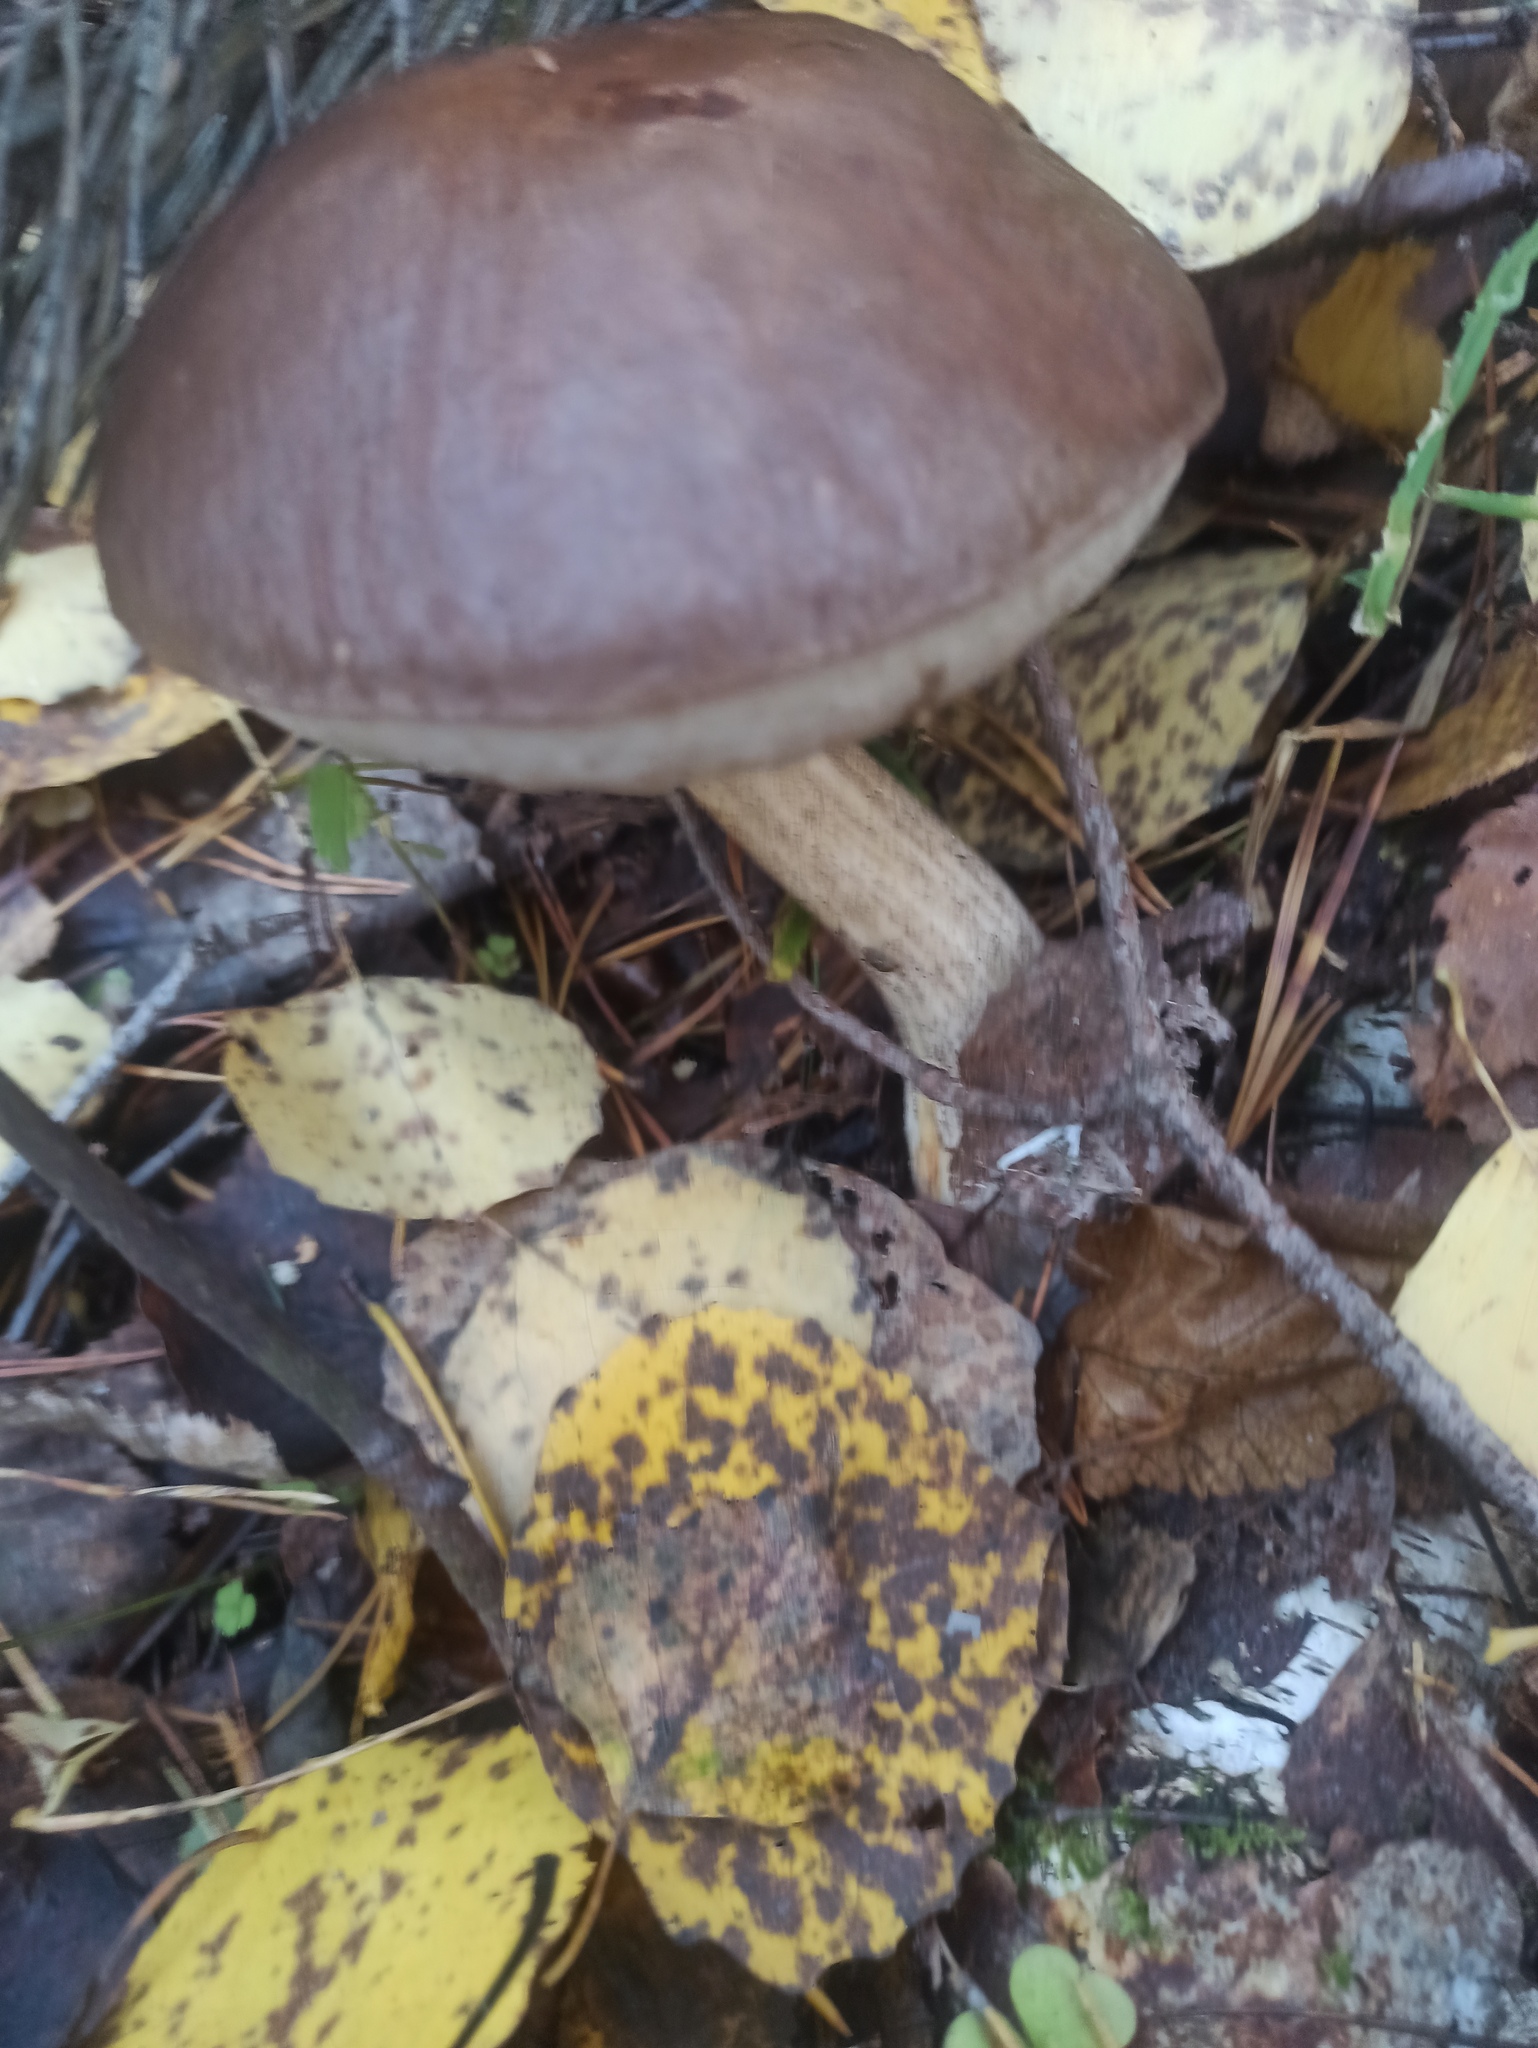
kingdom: Fungi
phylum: Basidiomycota
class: Agaricomycetes
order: Boletales
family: Boletaceae
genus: Leccinum
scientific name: Leccinum scabrum
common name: Blushing bolete
